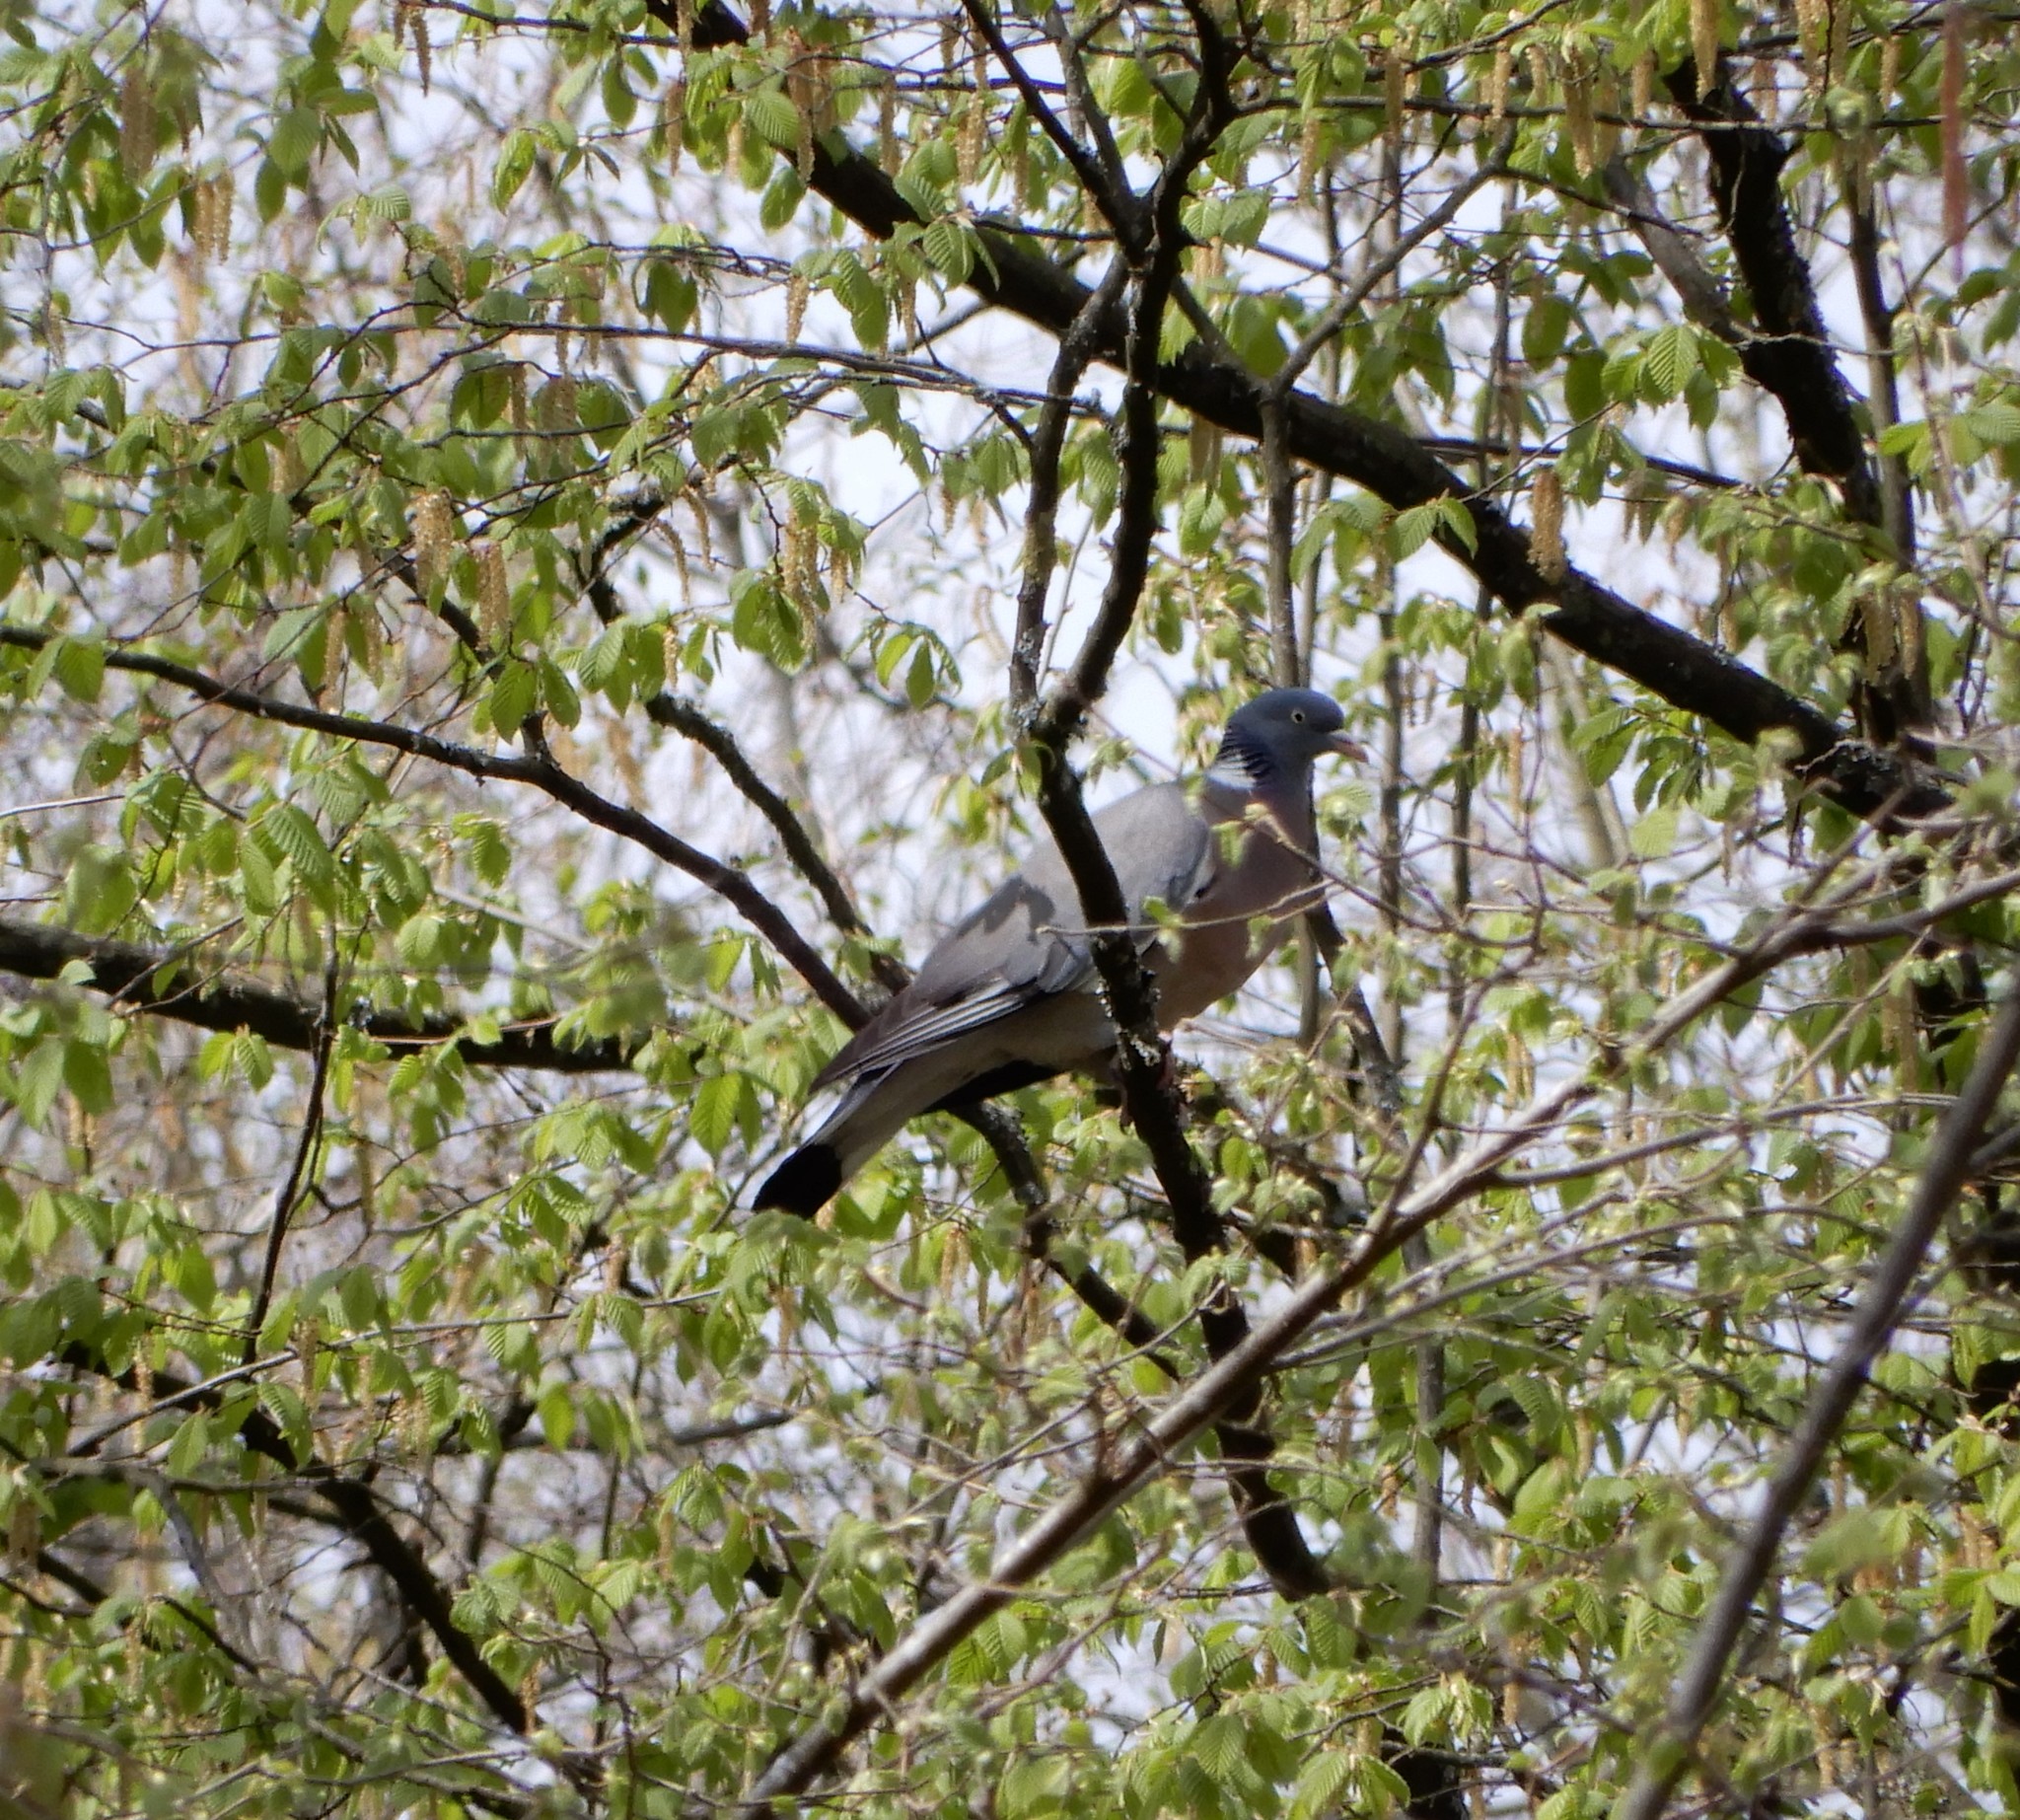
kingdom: Animalia
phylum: Chordata
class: Aves
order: Columbiformes
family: Columbidae
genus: Columba
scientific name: Columba palumbus
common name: Common wood pigeon
